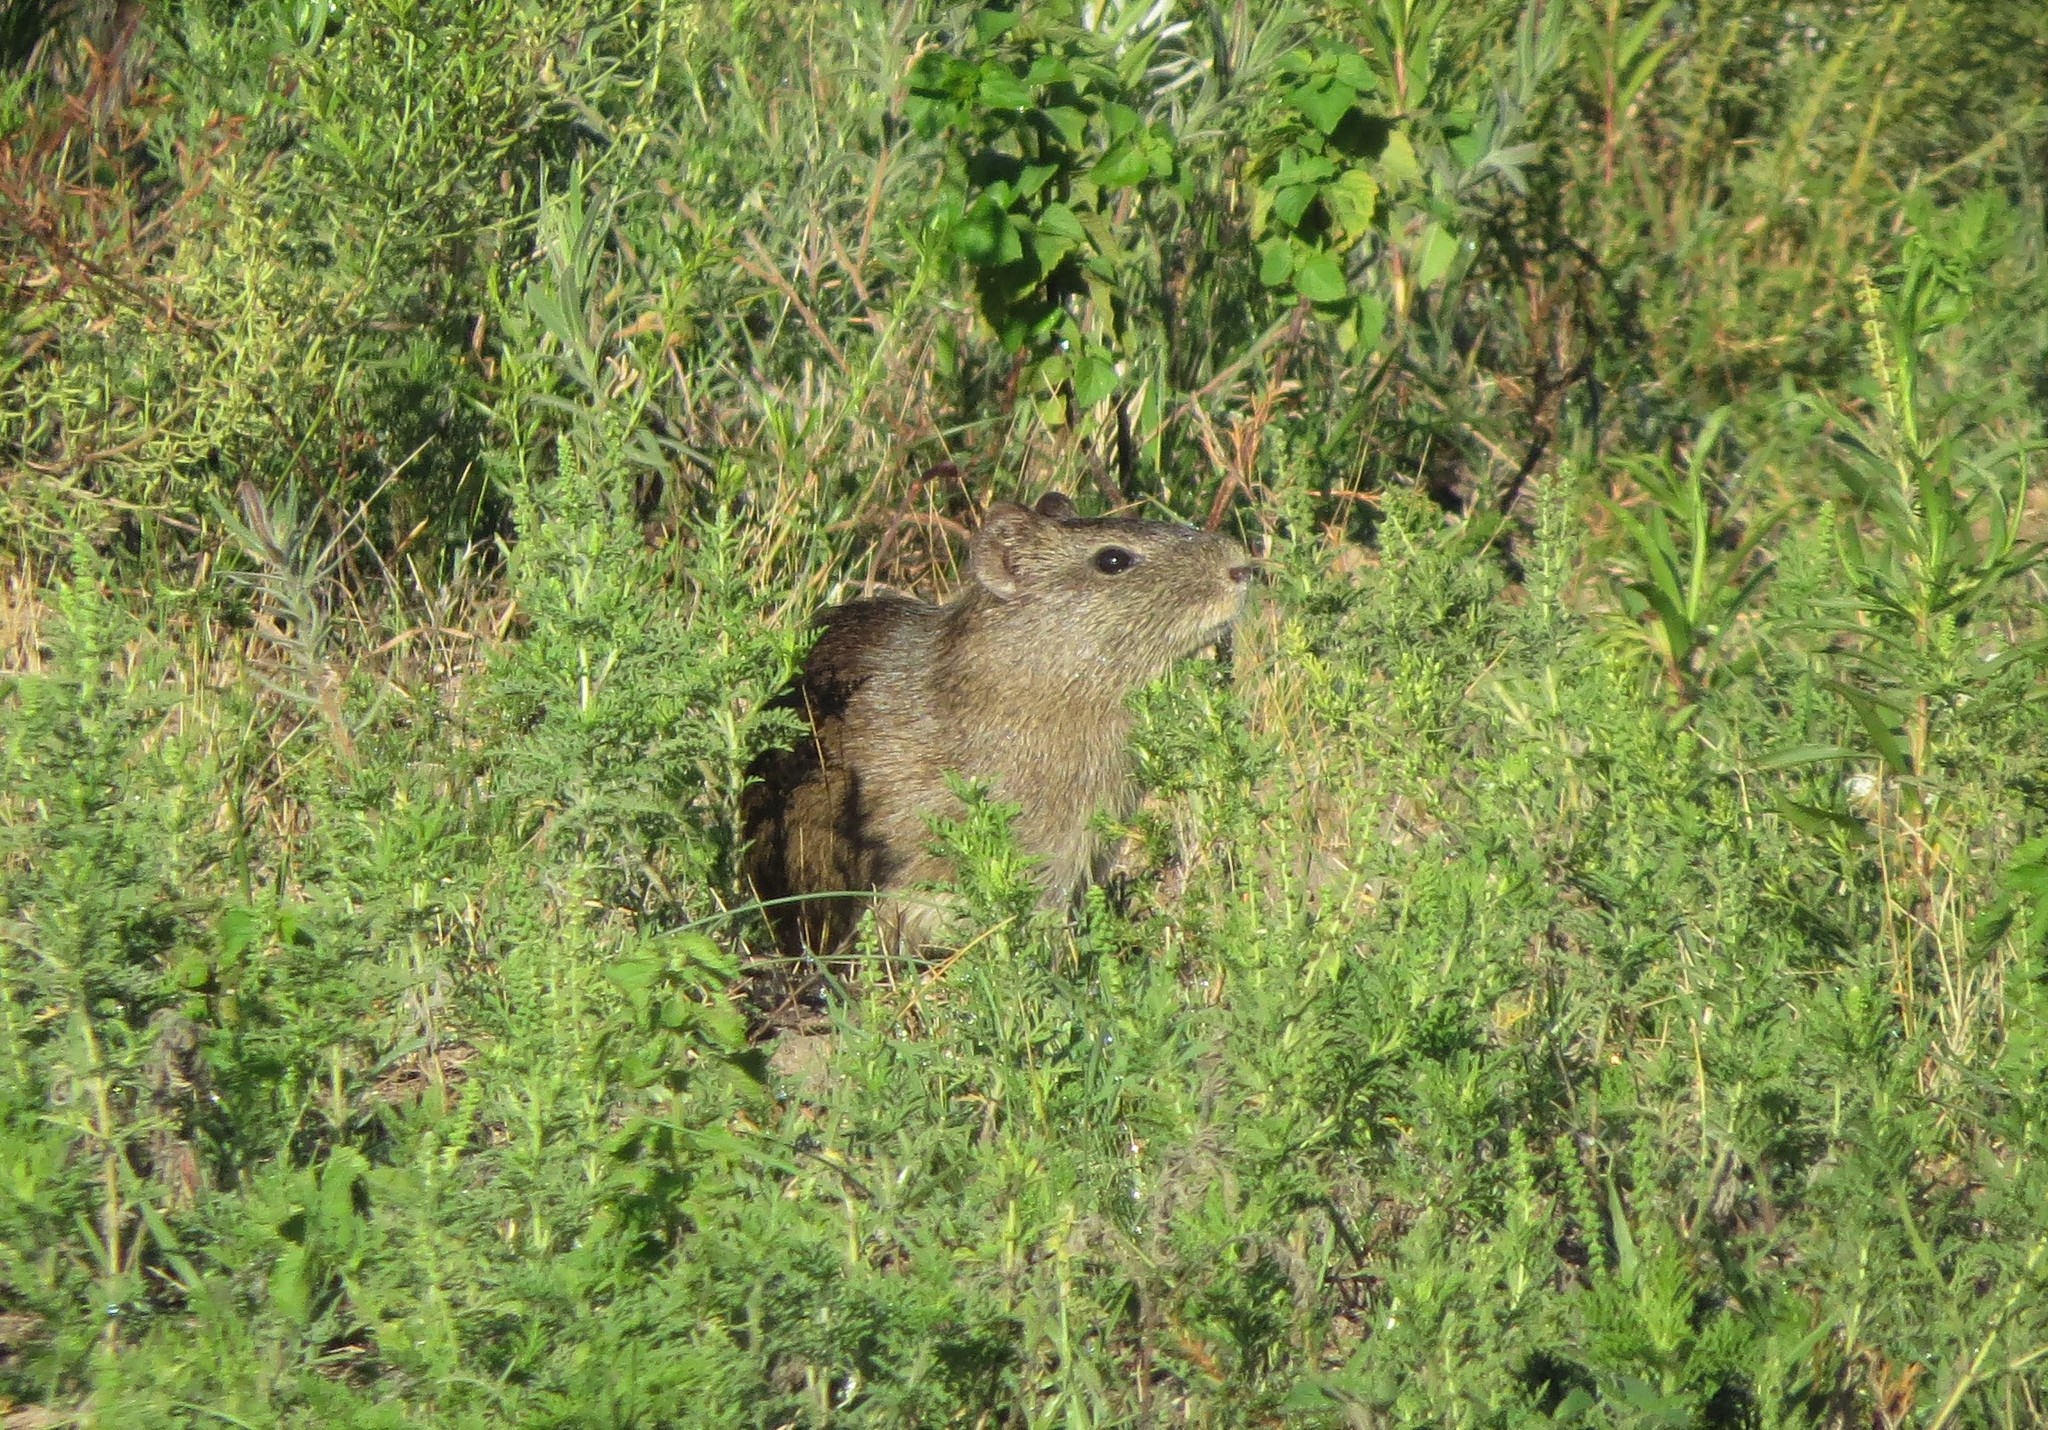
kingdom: Animalia
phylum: Chordata
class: Mammalia
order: Rodentia
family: Caviidae
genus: Cavia
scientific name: Cavia aperea
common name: Brazilian guinea pig
